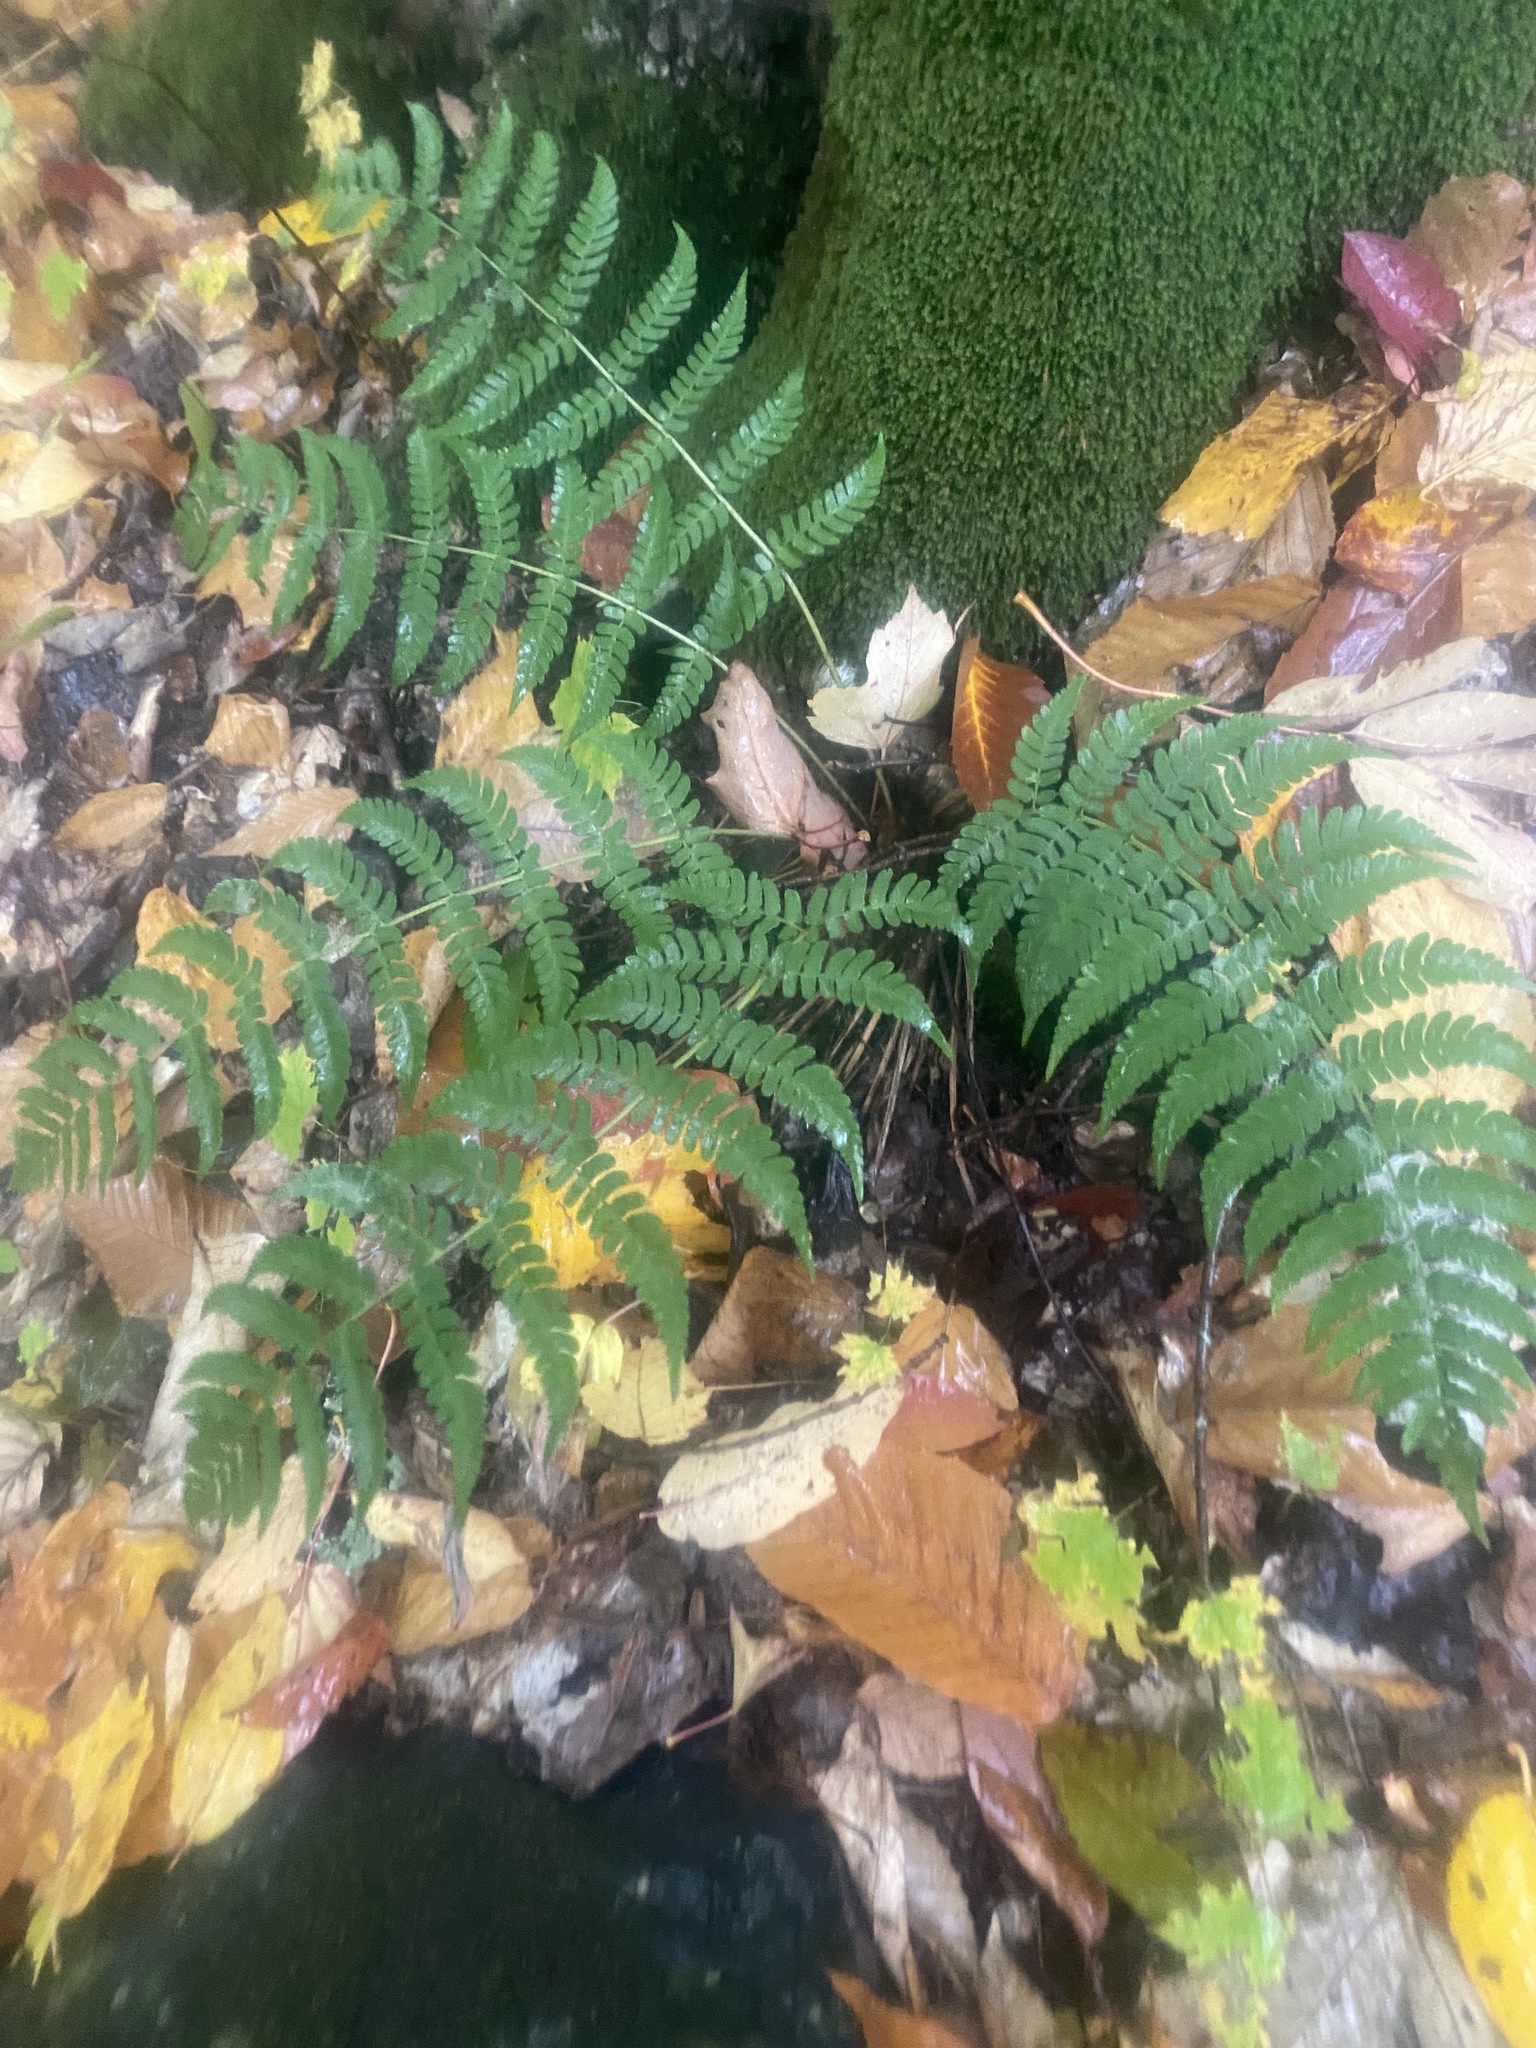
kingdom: Plantae
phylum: Tracheophyta
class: Polypodiopsida
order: Polypodiales
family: Dryopteridaceae
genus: Dryopteris
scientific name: Dryopteris marginalis
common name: Marginal wood fern
